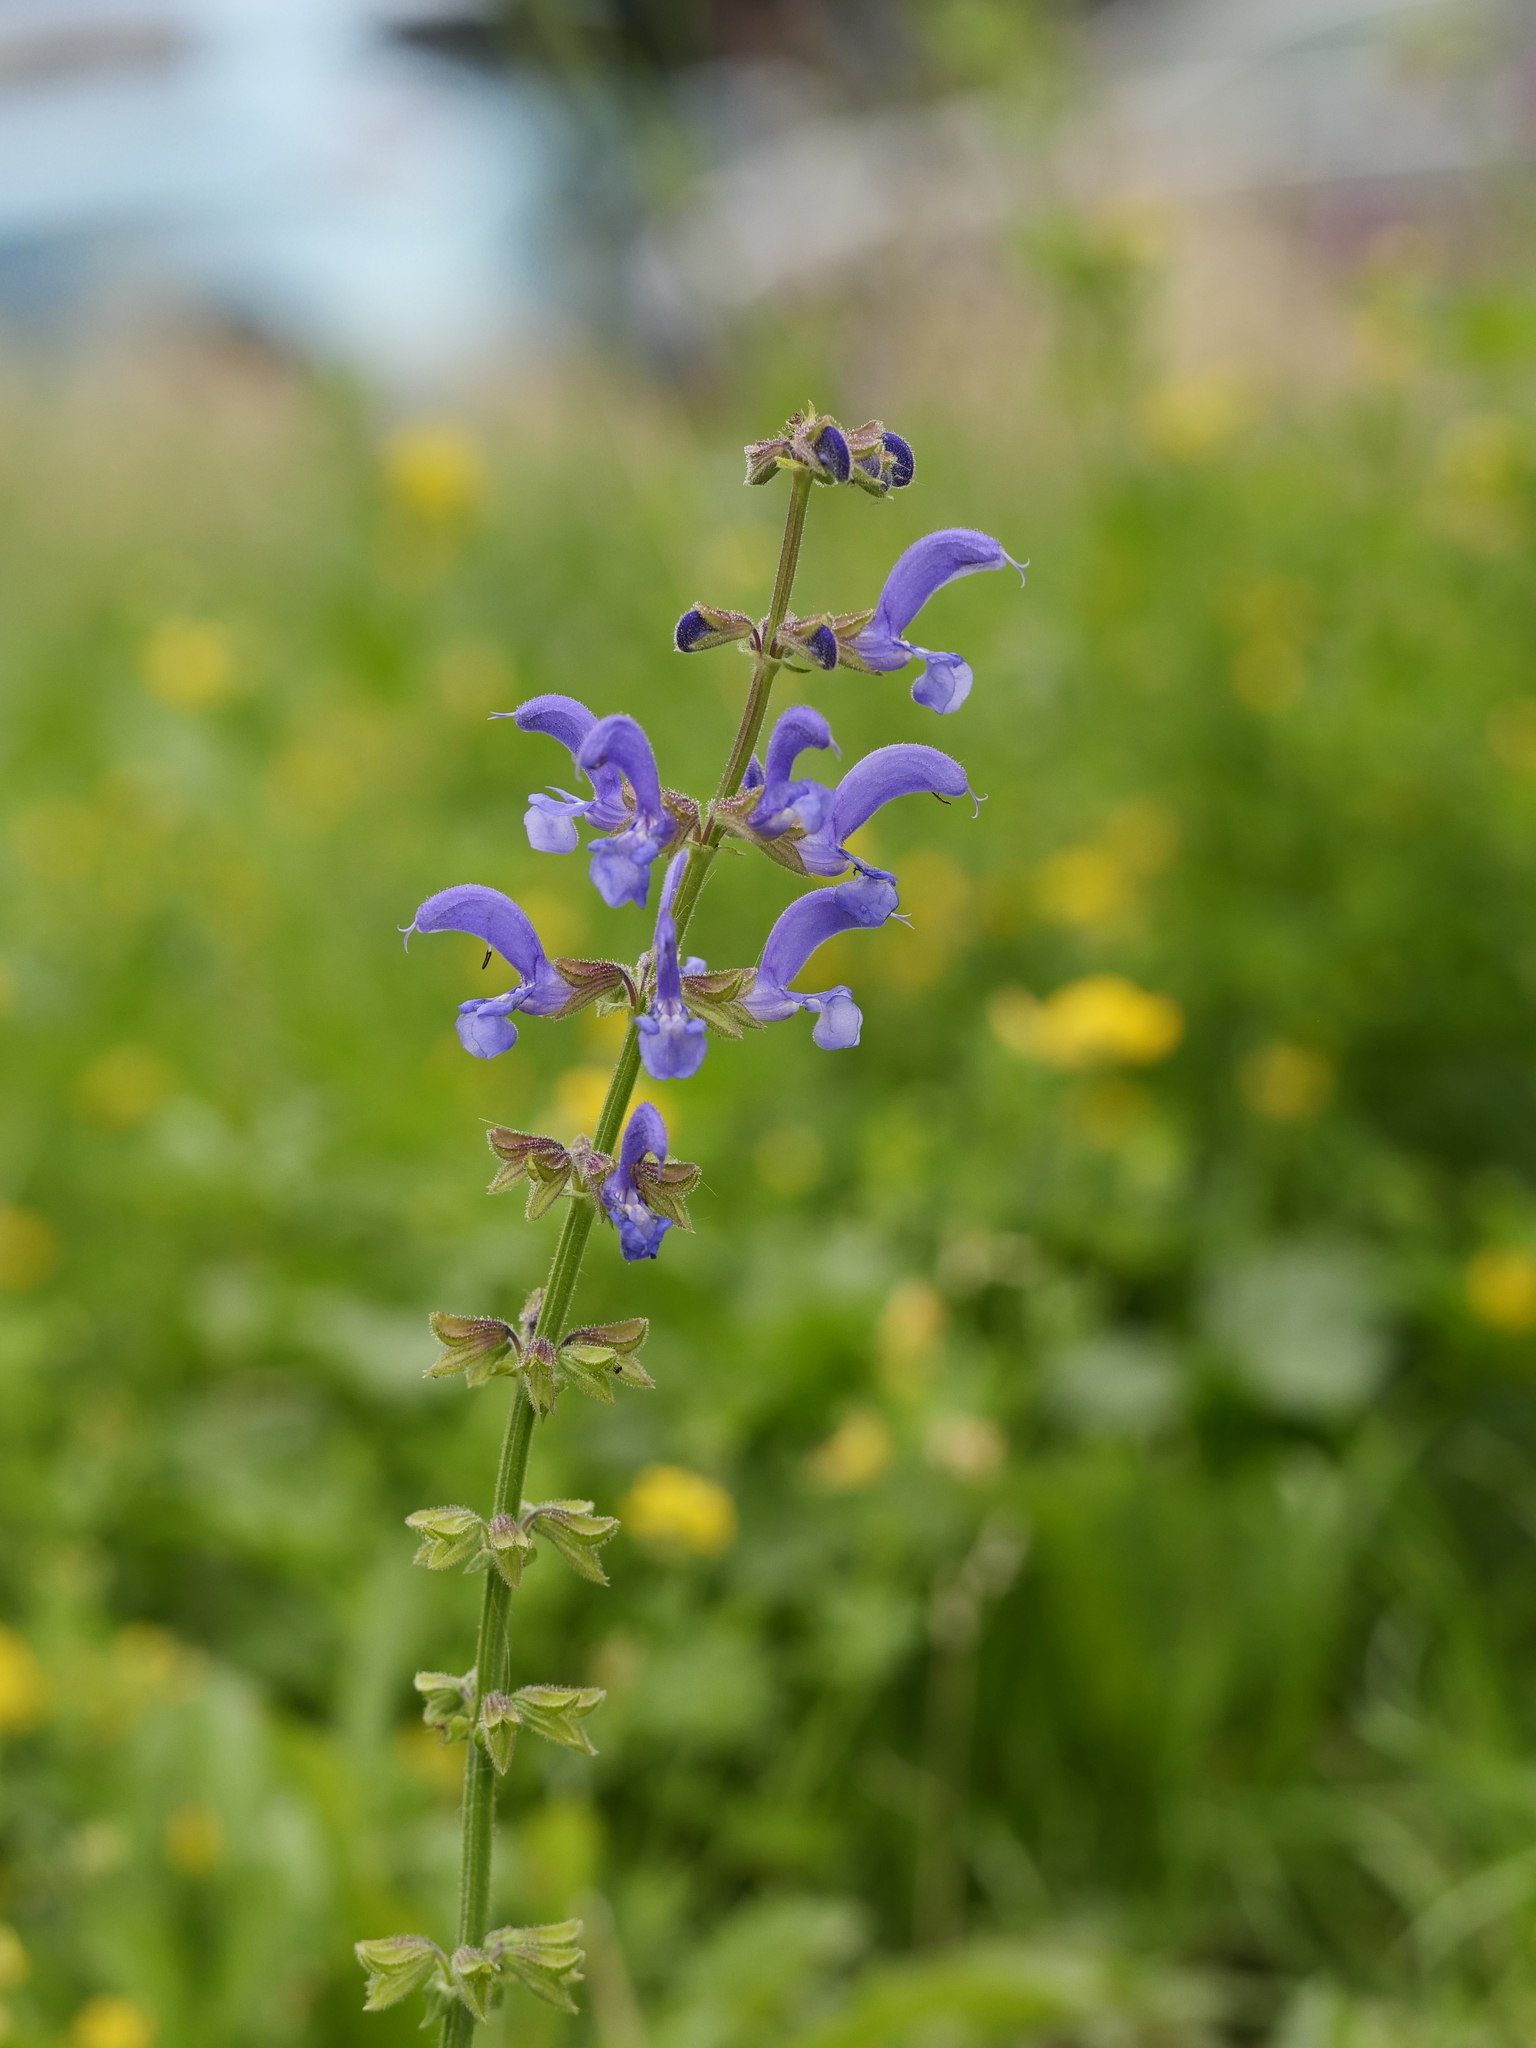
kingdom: Plantae
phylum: Tracheophyta
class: Magnoliopsida
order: Lamiales
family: Lamiaceae
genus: Salvia
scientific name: Salvia pratensis
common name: Meadow sage
